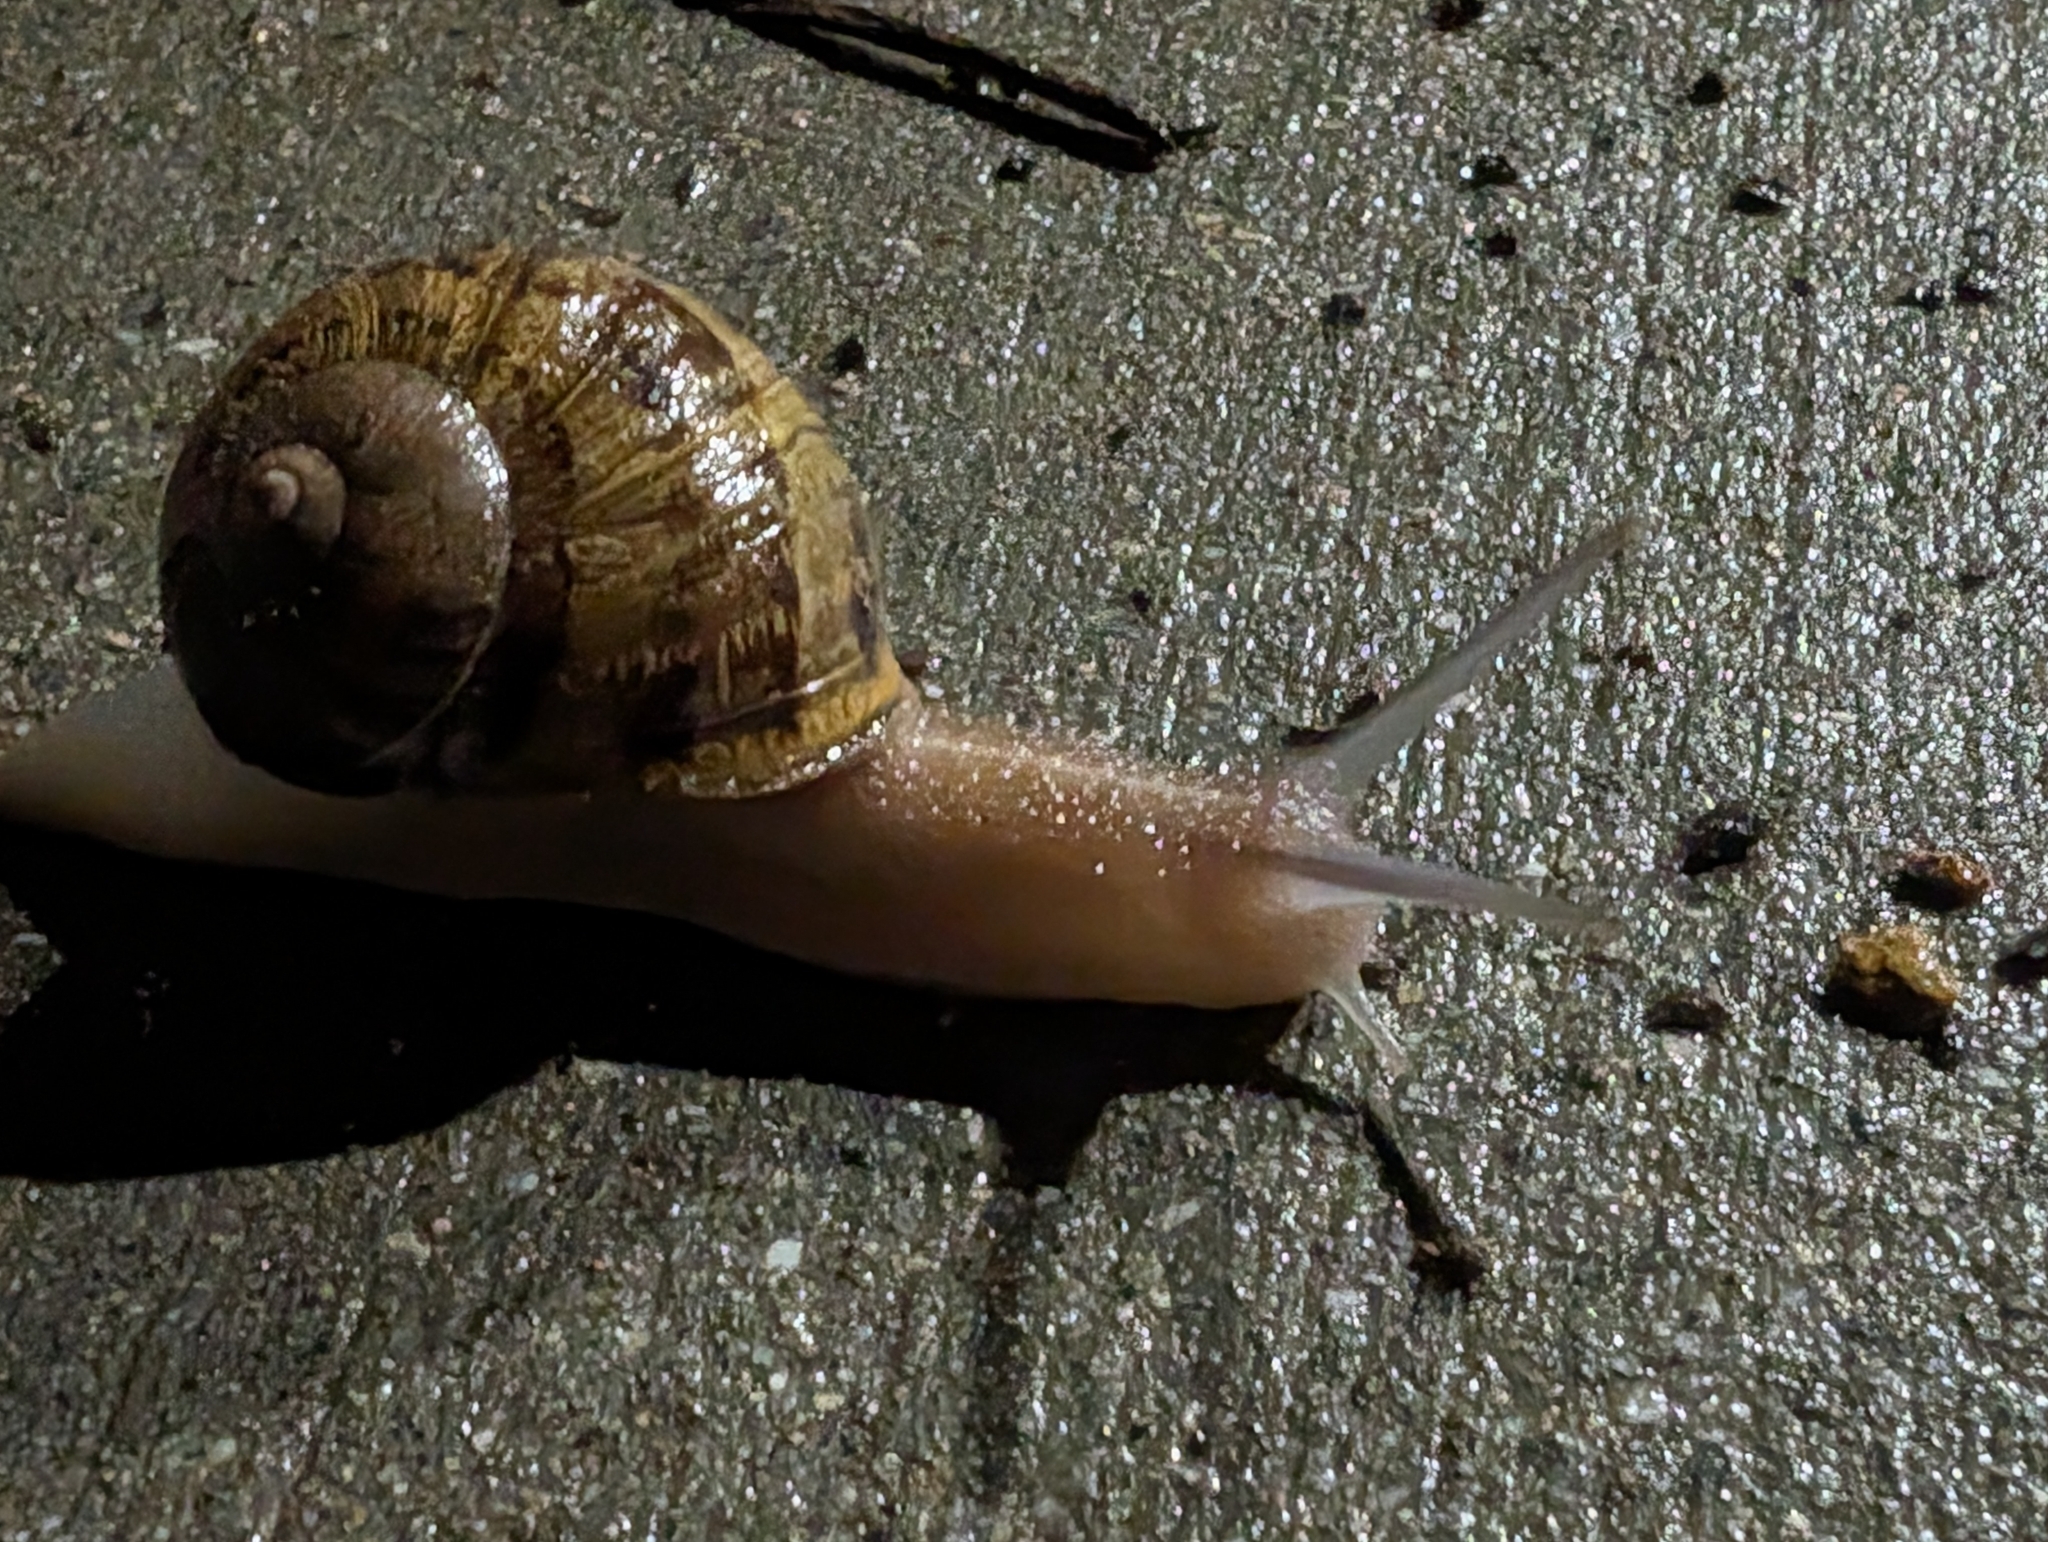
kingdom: Animalia
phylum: Mollusca
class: Gastropoda
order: Stylommatophora
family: Helicidae
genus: Cornu
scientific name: Cornu aspersum
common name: Brown garden snail
